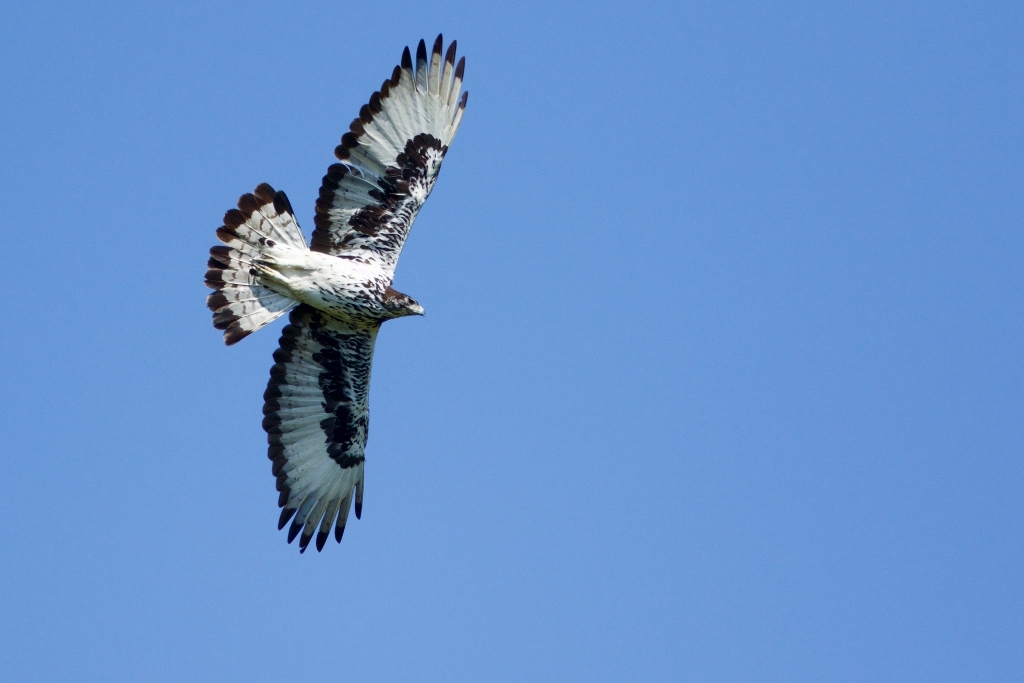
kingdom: Animalia
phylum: Chordata
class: Aves
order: Accipitriformes
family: Accipitridae
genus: Aquila
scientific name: Aquila spilogaster
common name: African hawk-eagle
